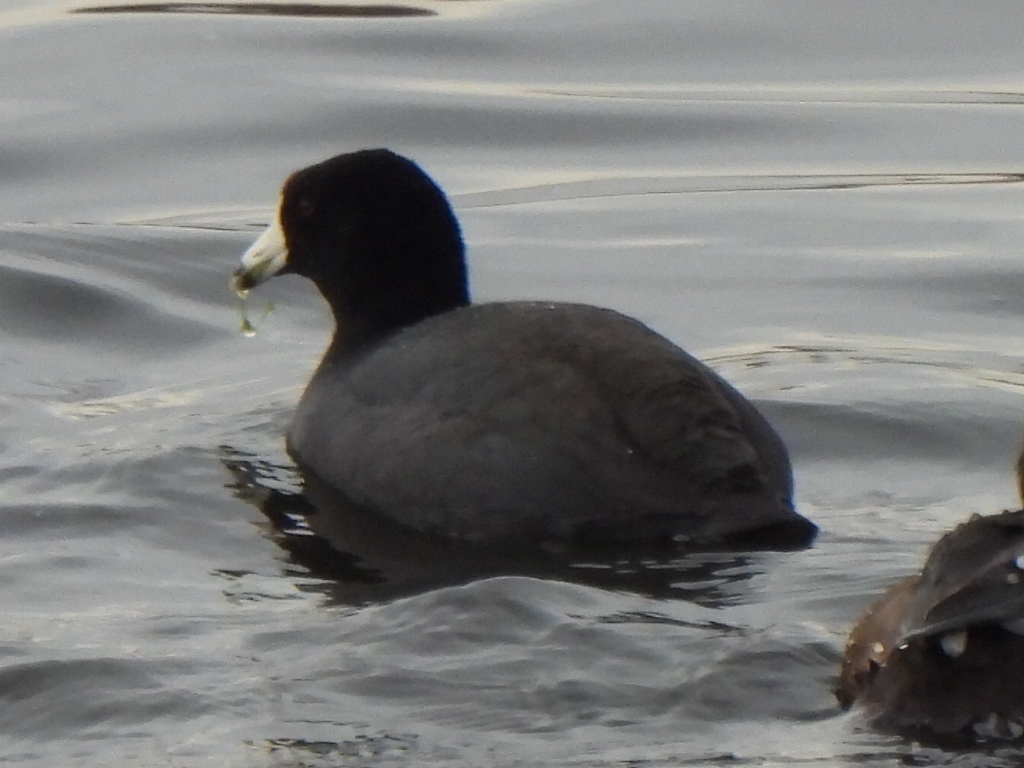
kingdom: Animalia
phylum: Chordata
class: Aves
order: Gruiformes
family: Rallidae
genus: Fulica
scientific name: Fulica americana
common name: American coot
